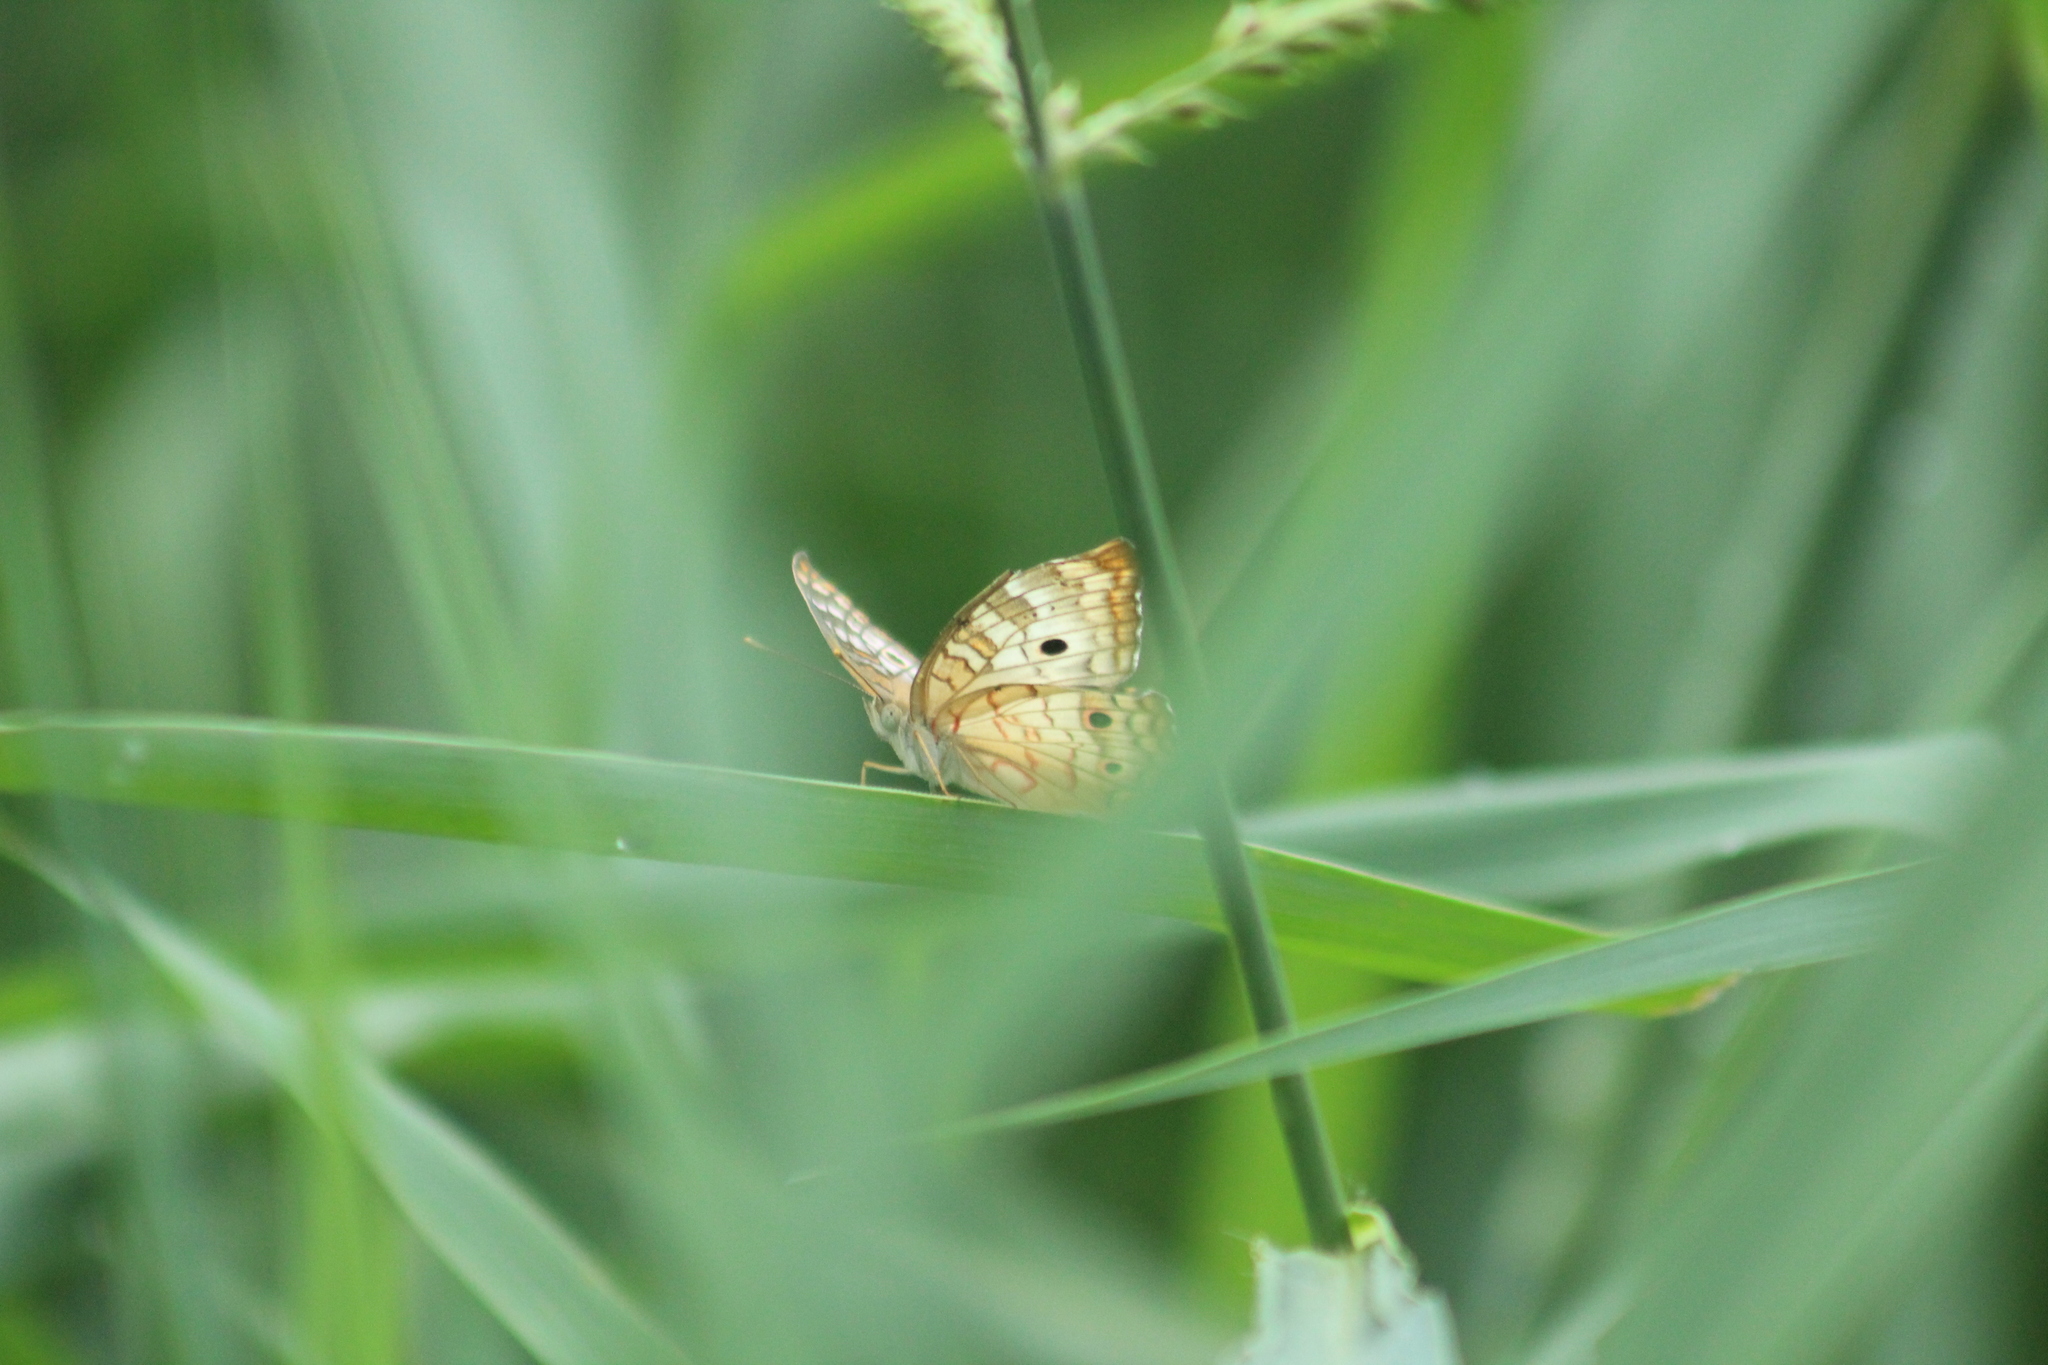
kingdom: Animalia
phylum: Arthropoda
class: Insecta
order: Lepidoptera
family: Nymphalidae
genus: Anartia
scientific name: Anartia jatrophae
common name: White peacock
